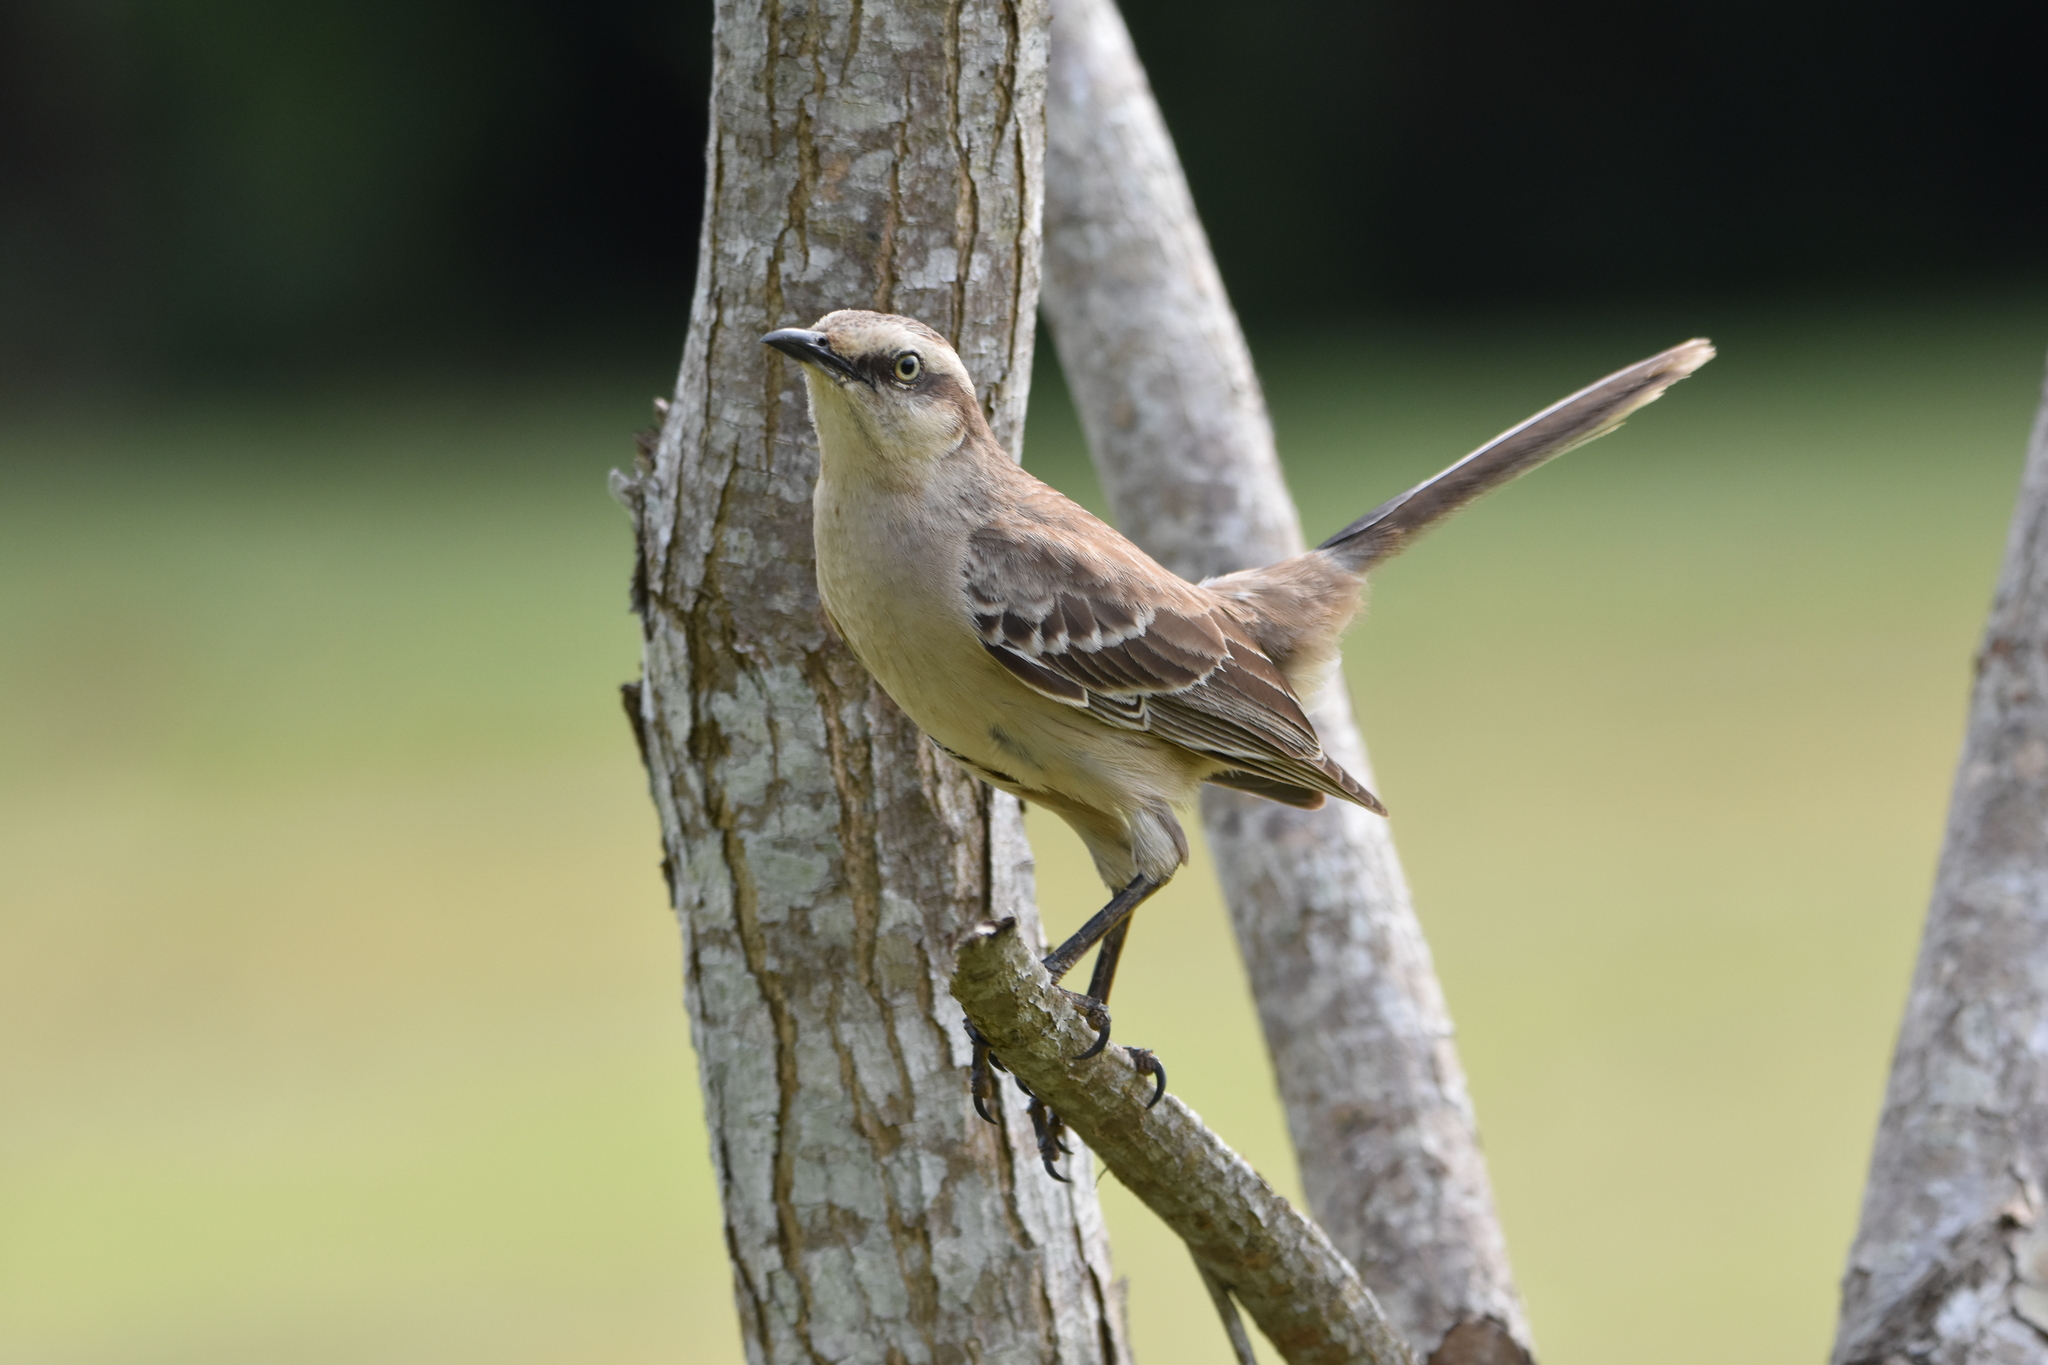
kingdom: Animalia
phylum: Chordata
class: Aves
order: Passeriformes
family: Mimidae
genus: Mimus
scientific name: Mimus saturninus
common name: Chalk-browed mockingbird
